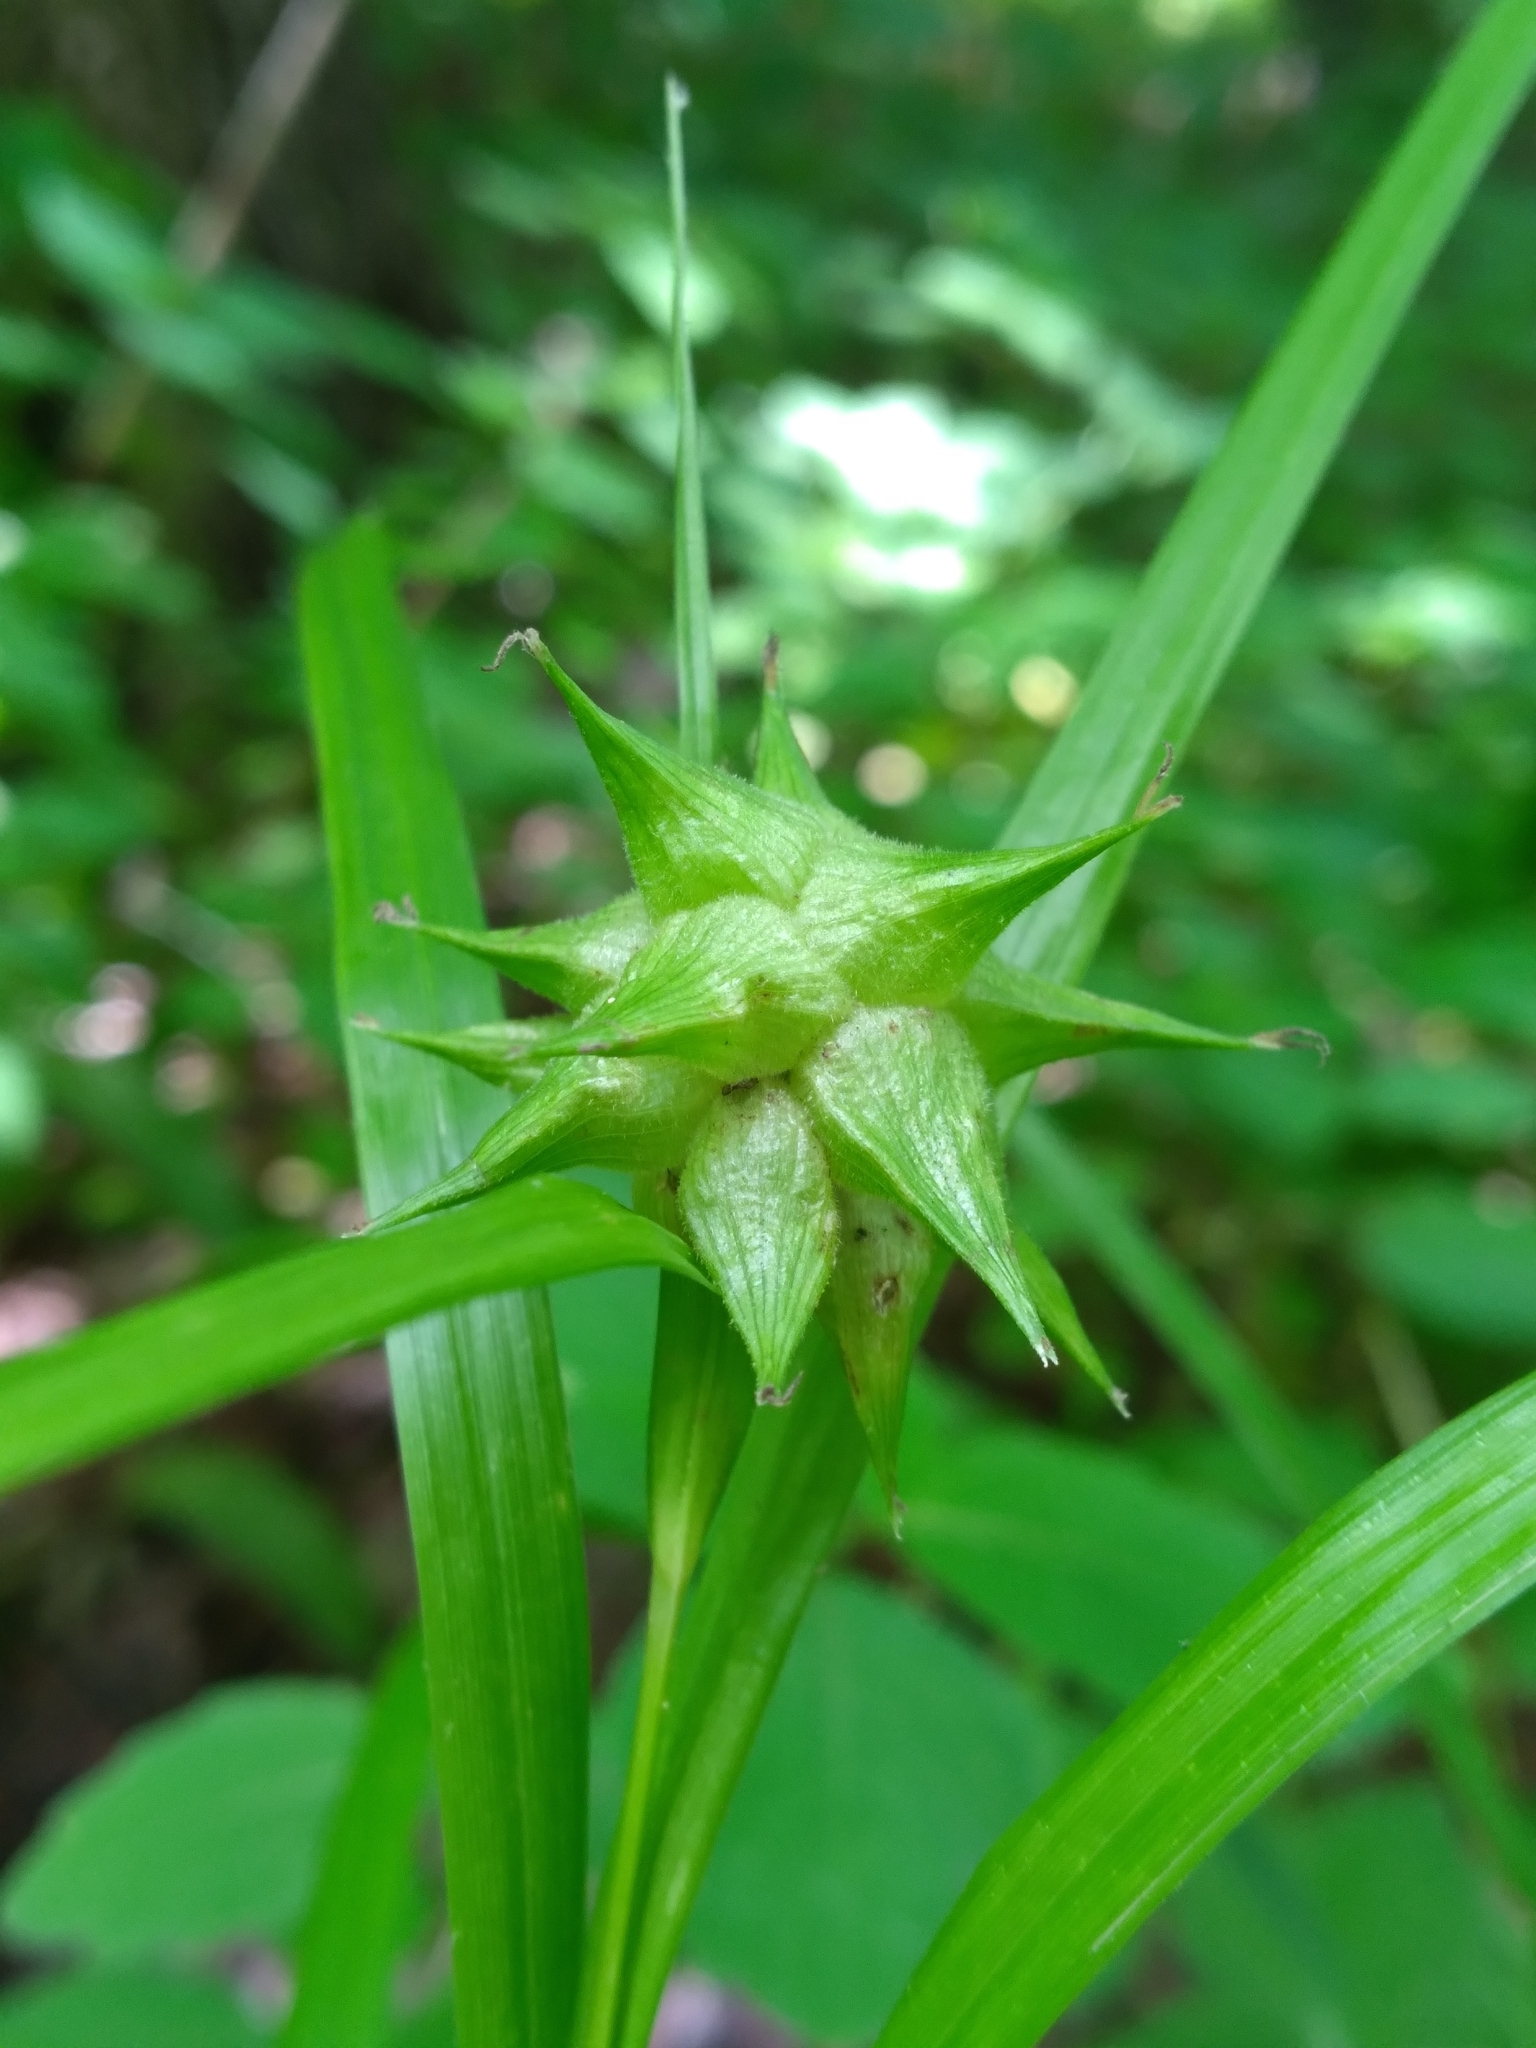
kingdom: Plantae
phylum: Tracheophyta
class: Liliopsida
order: Poales
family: Cyperaceae
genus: Carex
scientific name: Carex grayi
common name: Asa gray's sedge
